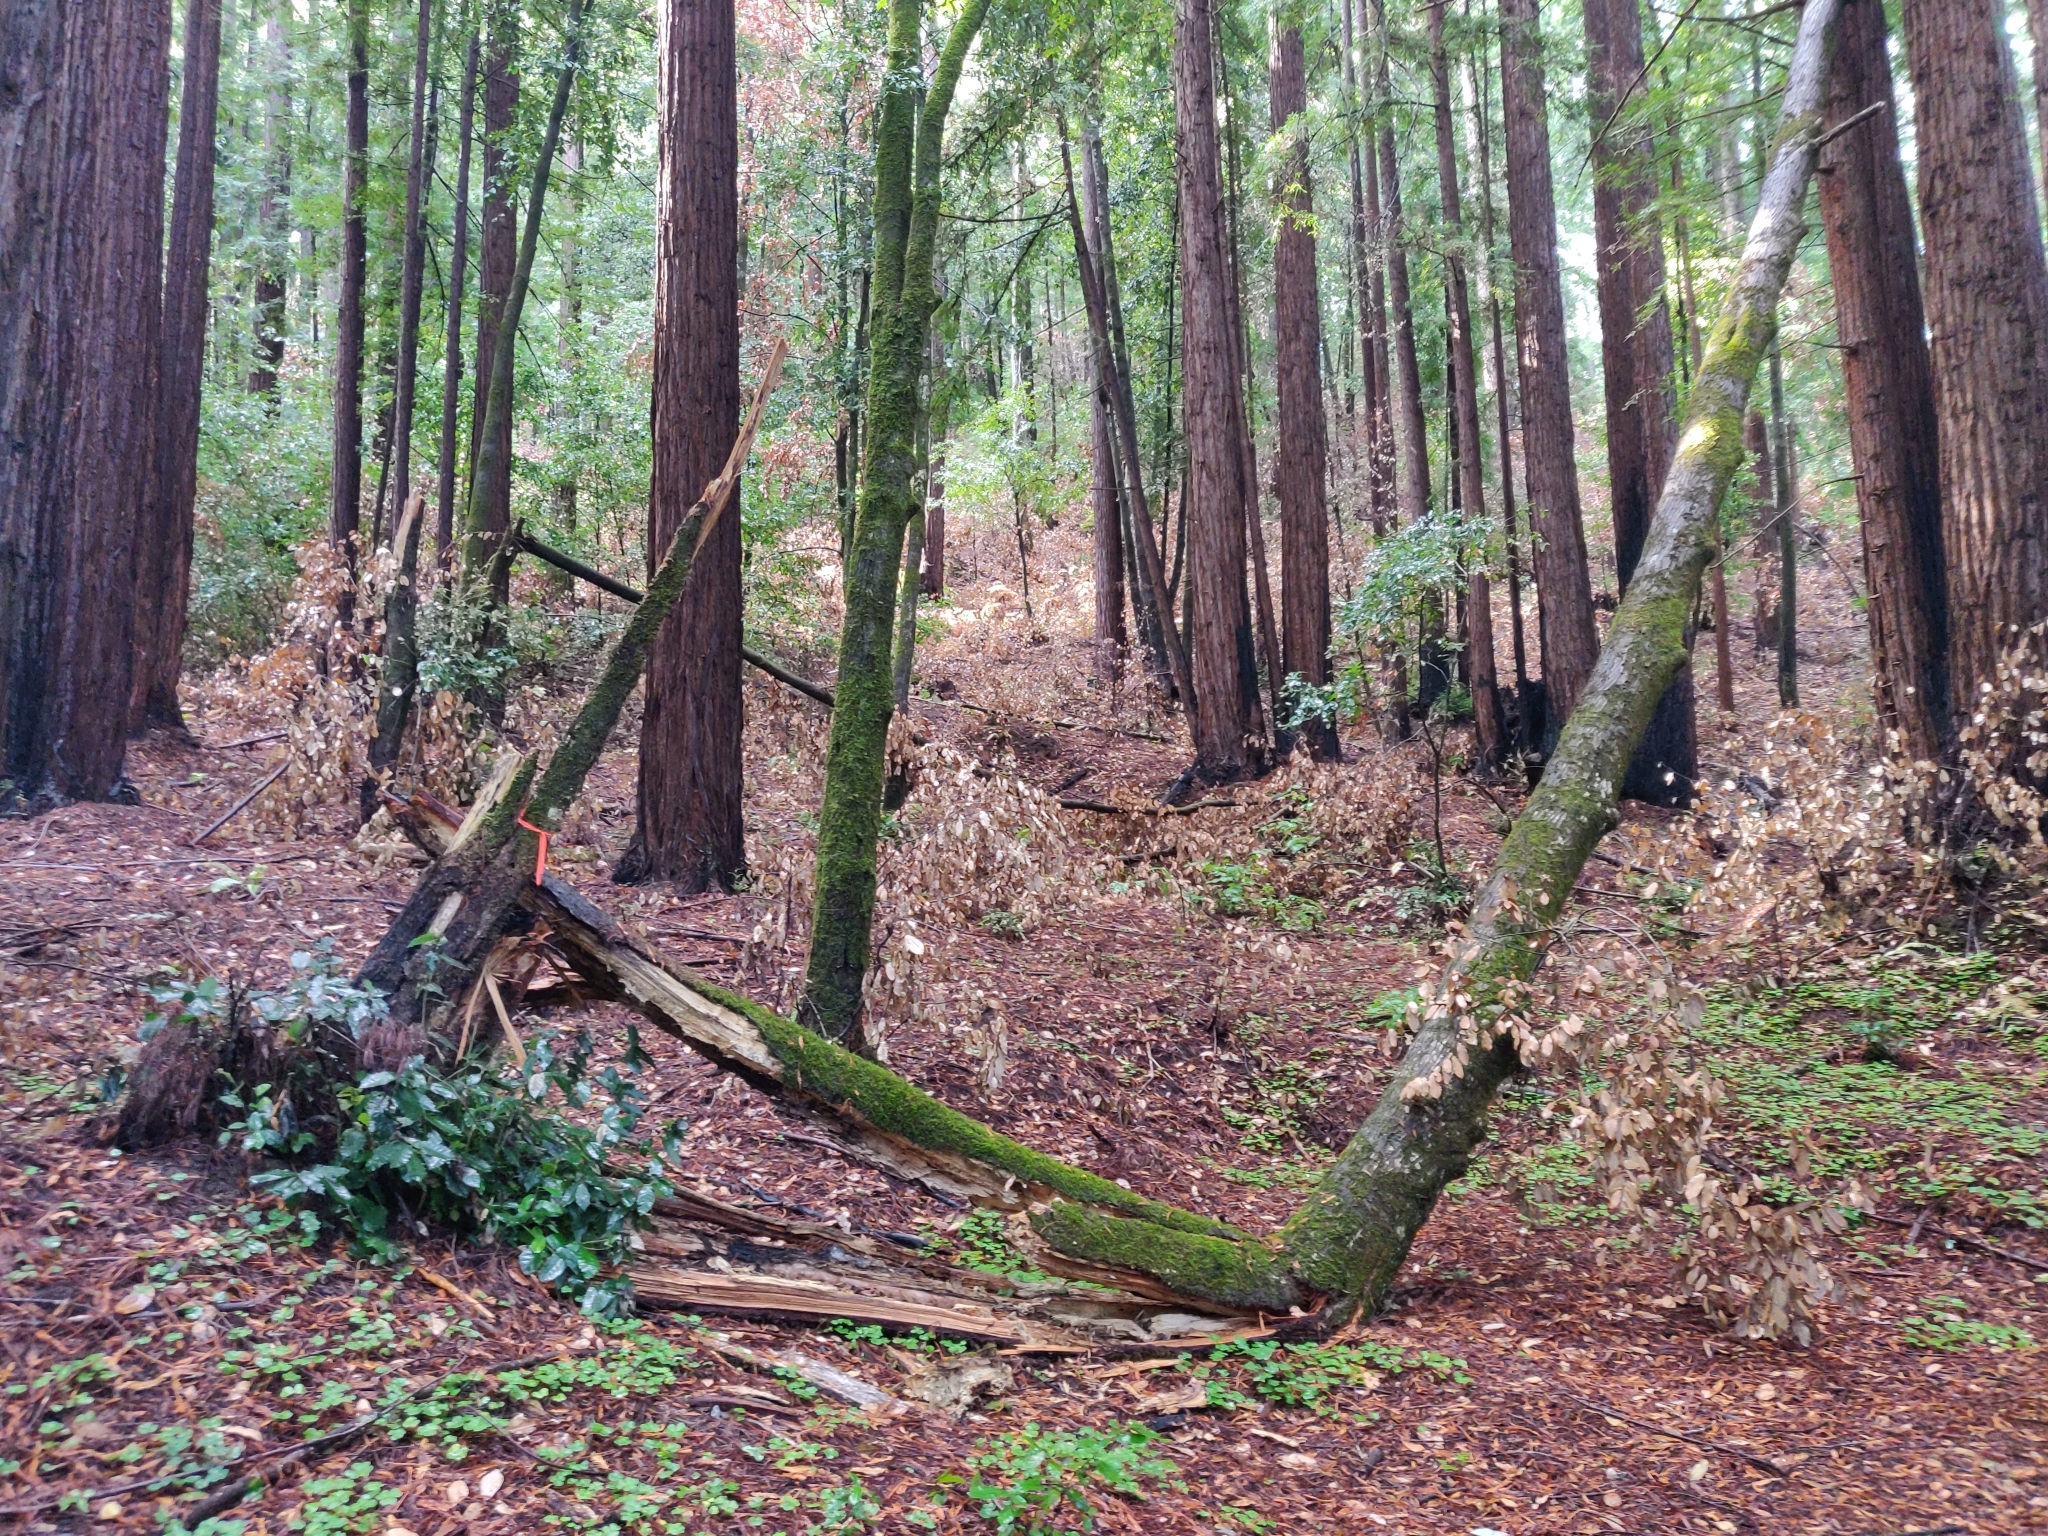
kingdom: Plantae
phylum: Tracheophyta
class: Magnoliopsida
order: Fagales
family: Fagaceae
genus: Notholithocarpus
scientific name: Notholithocarpus densiflorus
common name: Tan bark oak
